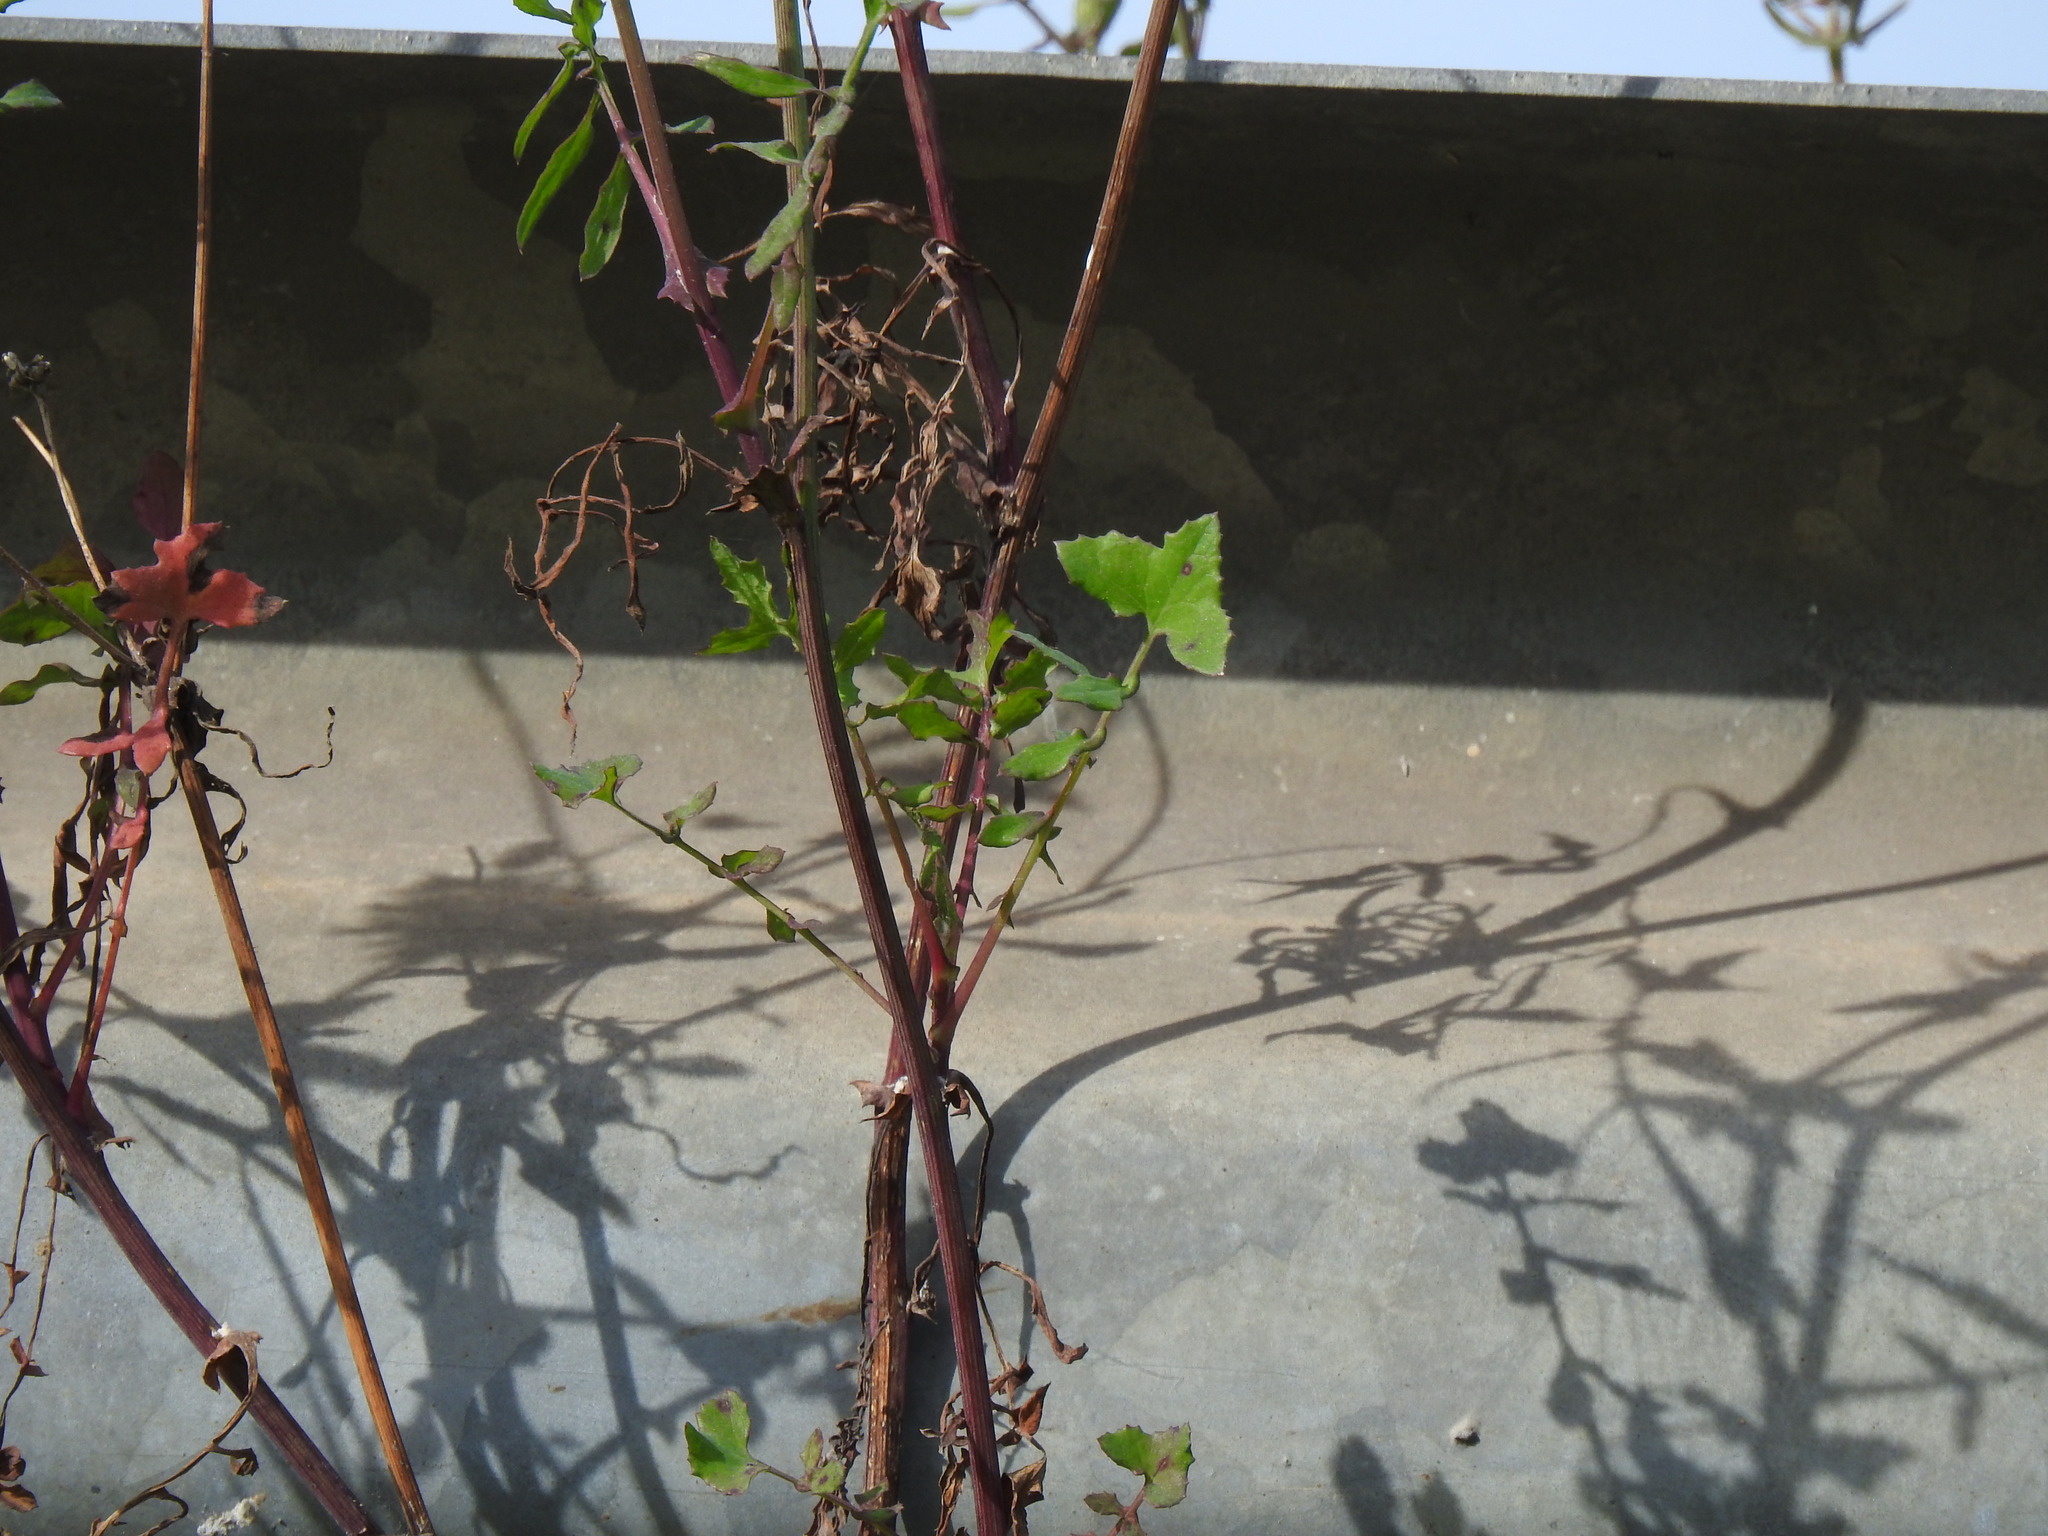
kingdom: Plantae
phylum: Tracheophyta
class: Magnoliopsida
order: Asterales
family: Asteraceae
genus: Sonchus
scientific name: Sonchus tenerrimus
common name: Clammy sowthistle
